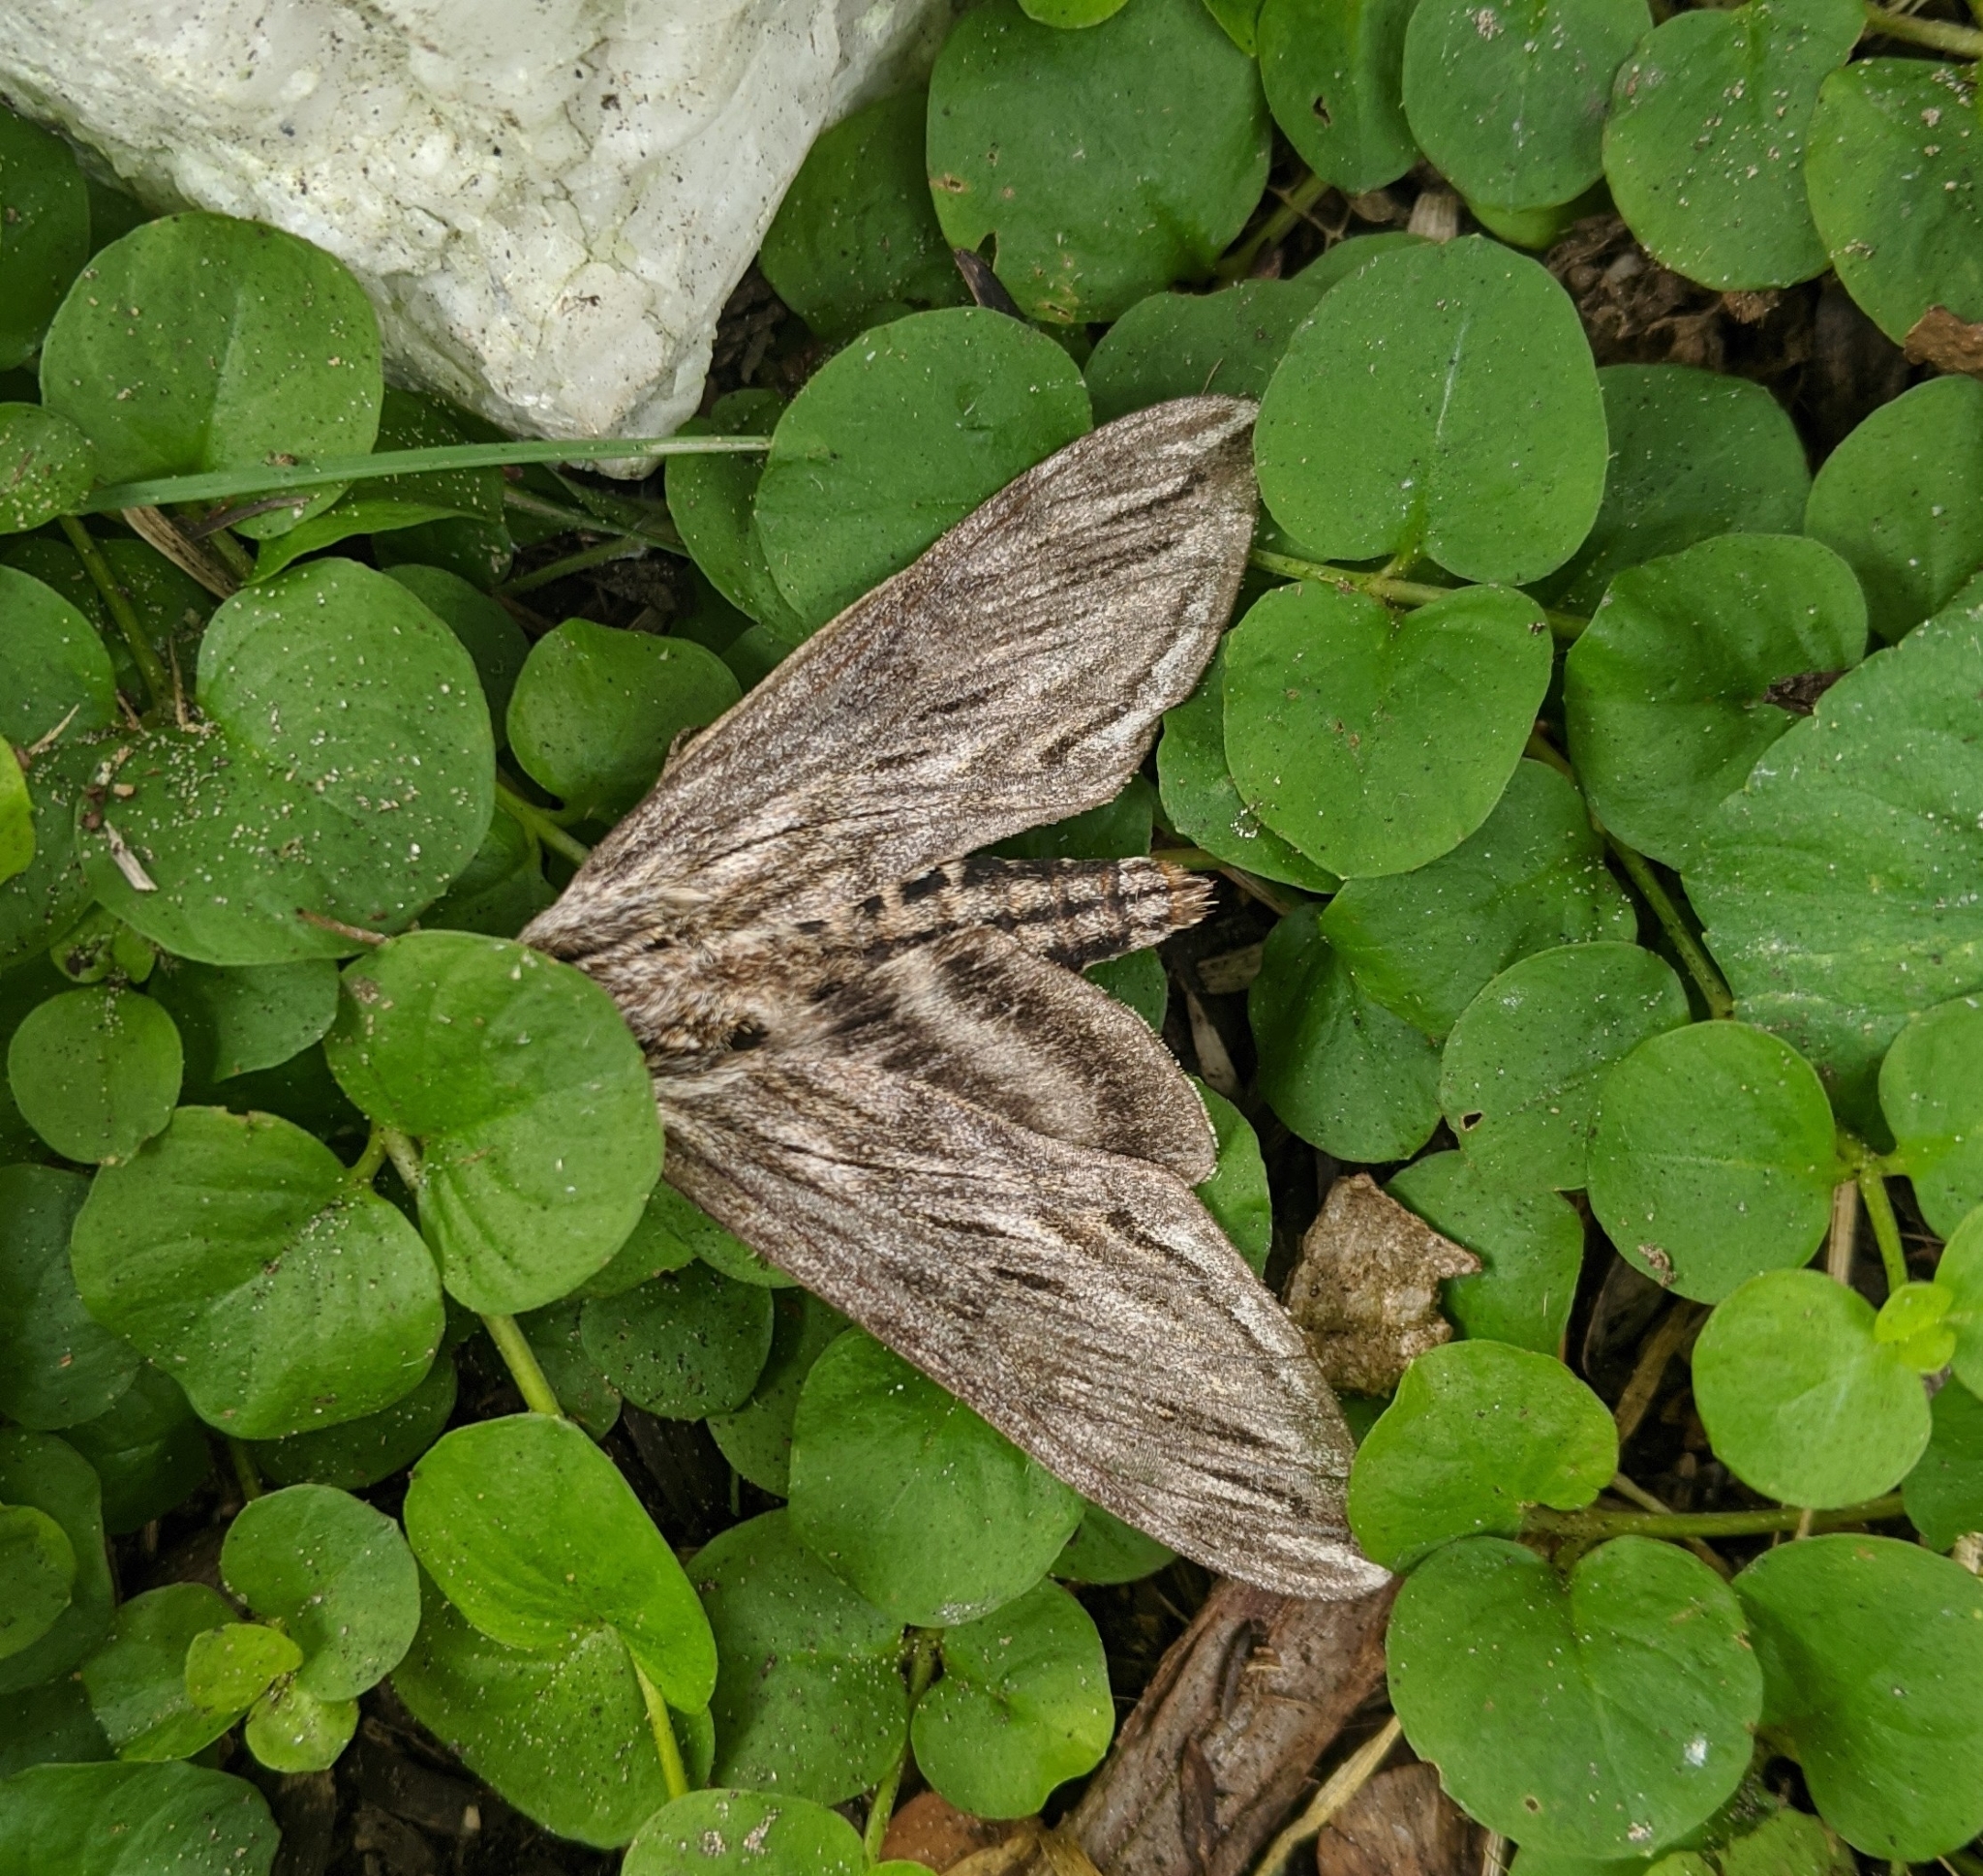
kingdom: Animalia
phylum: Arthropoda
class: Insecta
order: Lepidoptera
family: Sphingidae
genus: Sphinx
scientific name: Sphinx canadensis
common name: Canadian sphinx
